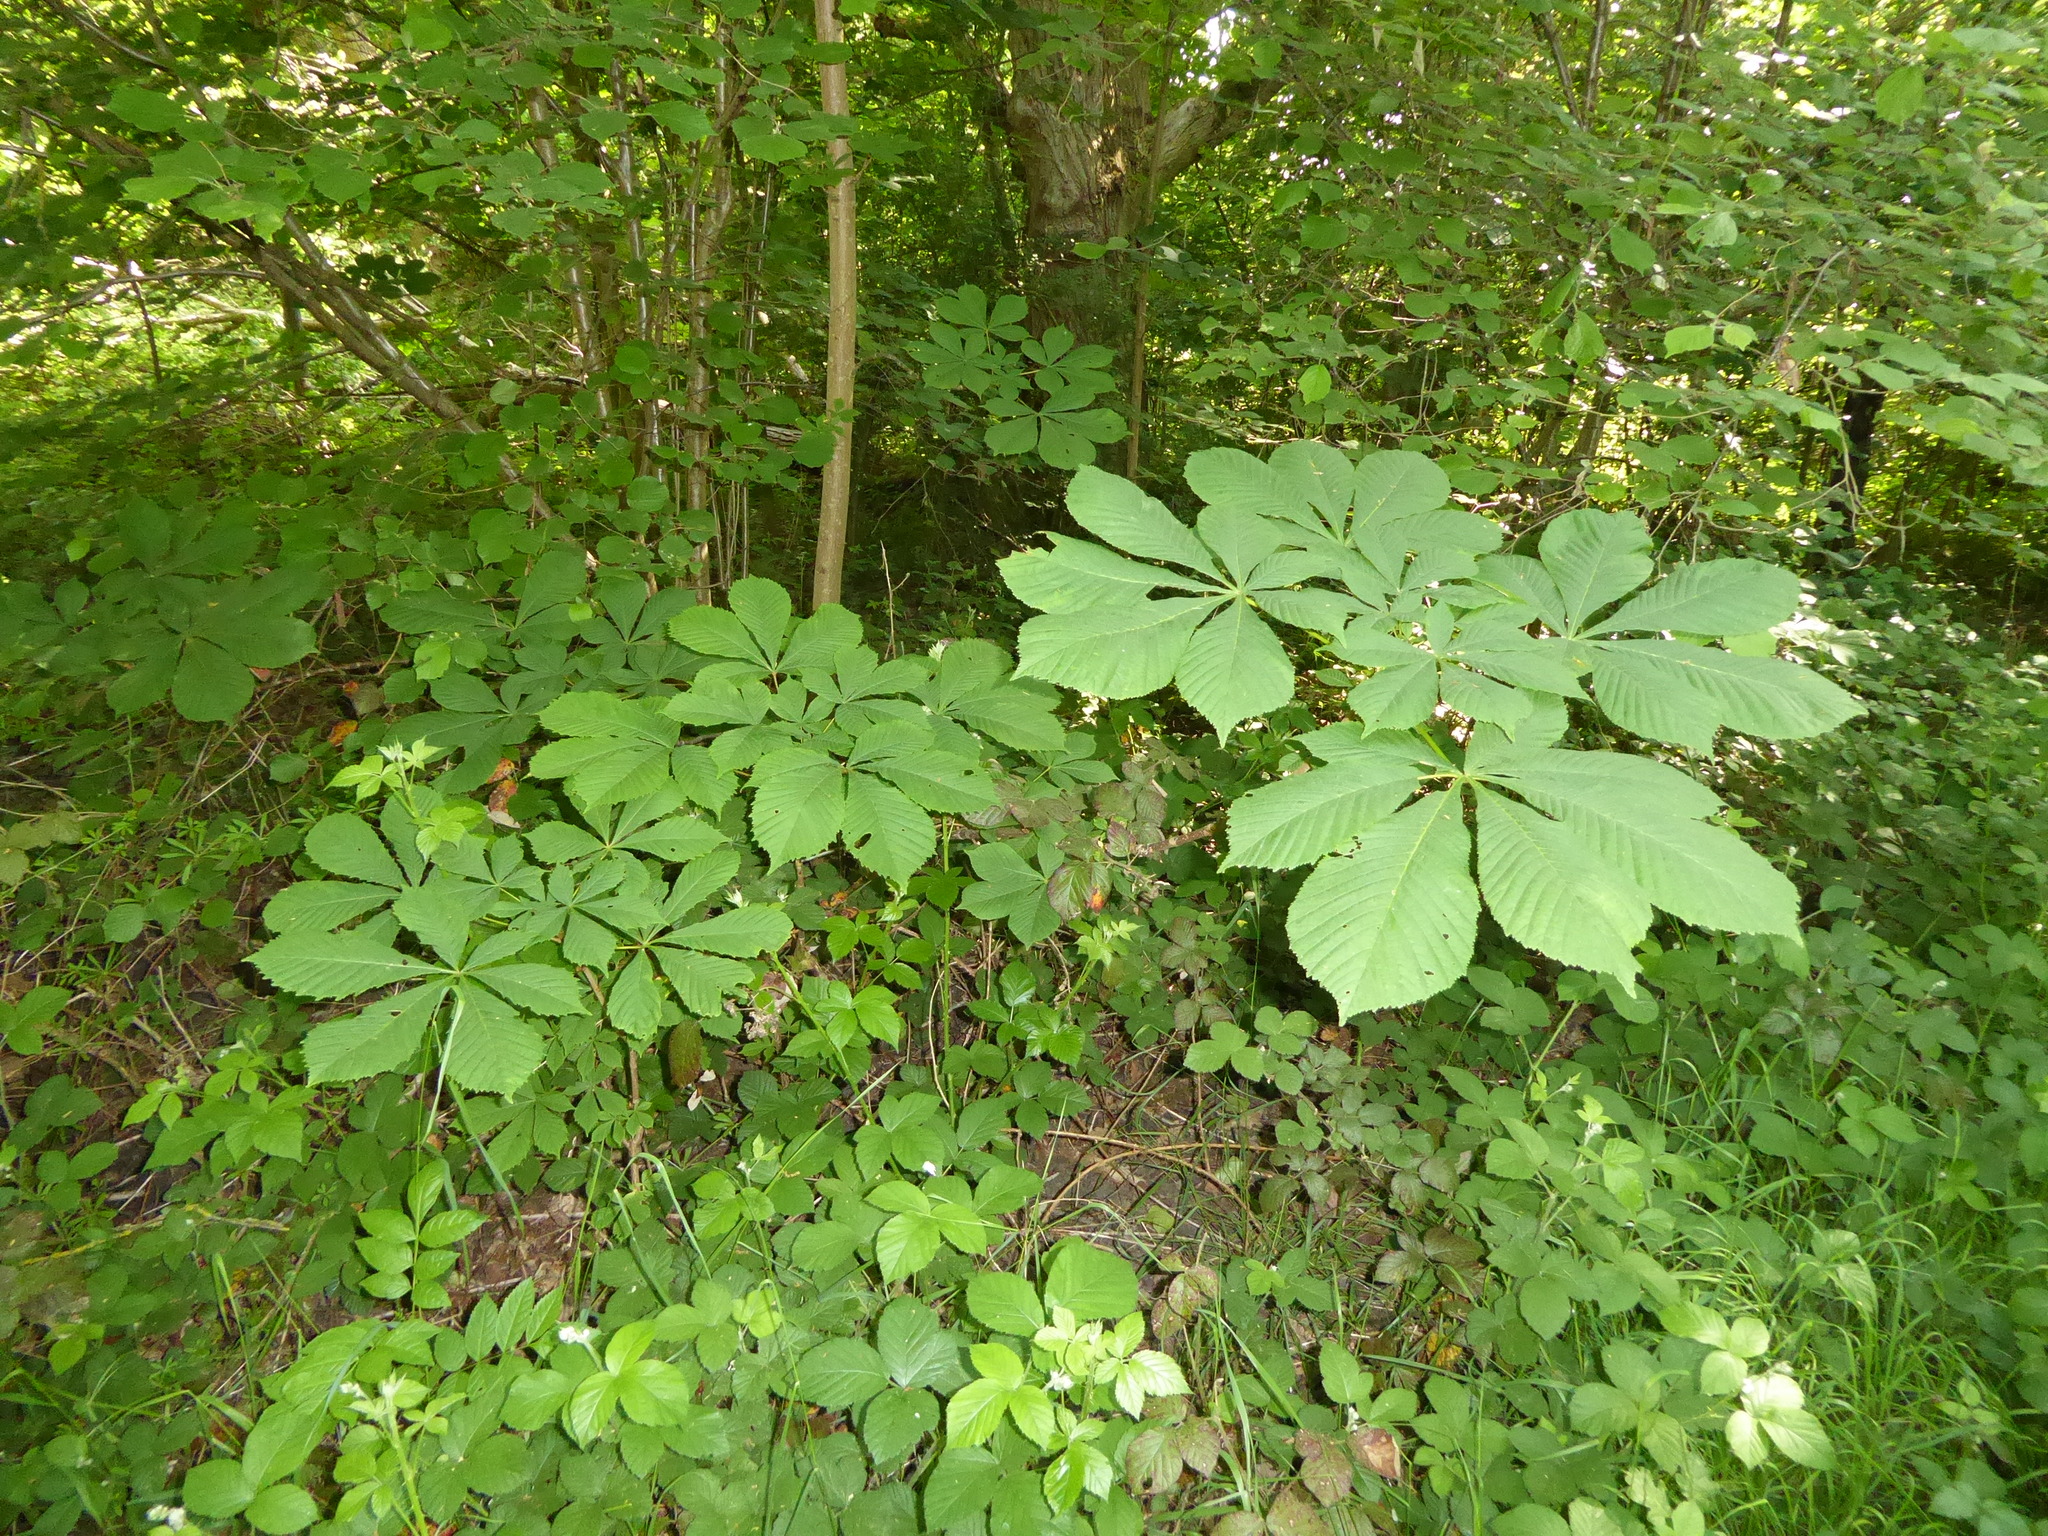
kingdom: Plantae
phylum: Tracheophyta
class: Magnoliopsida
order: Sapindales
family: Sapindaceae
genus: Aesculus
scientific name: Aesculus hippocastanum
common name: Horse-chestnut
